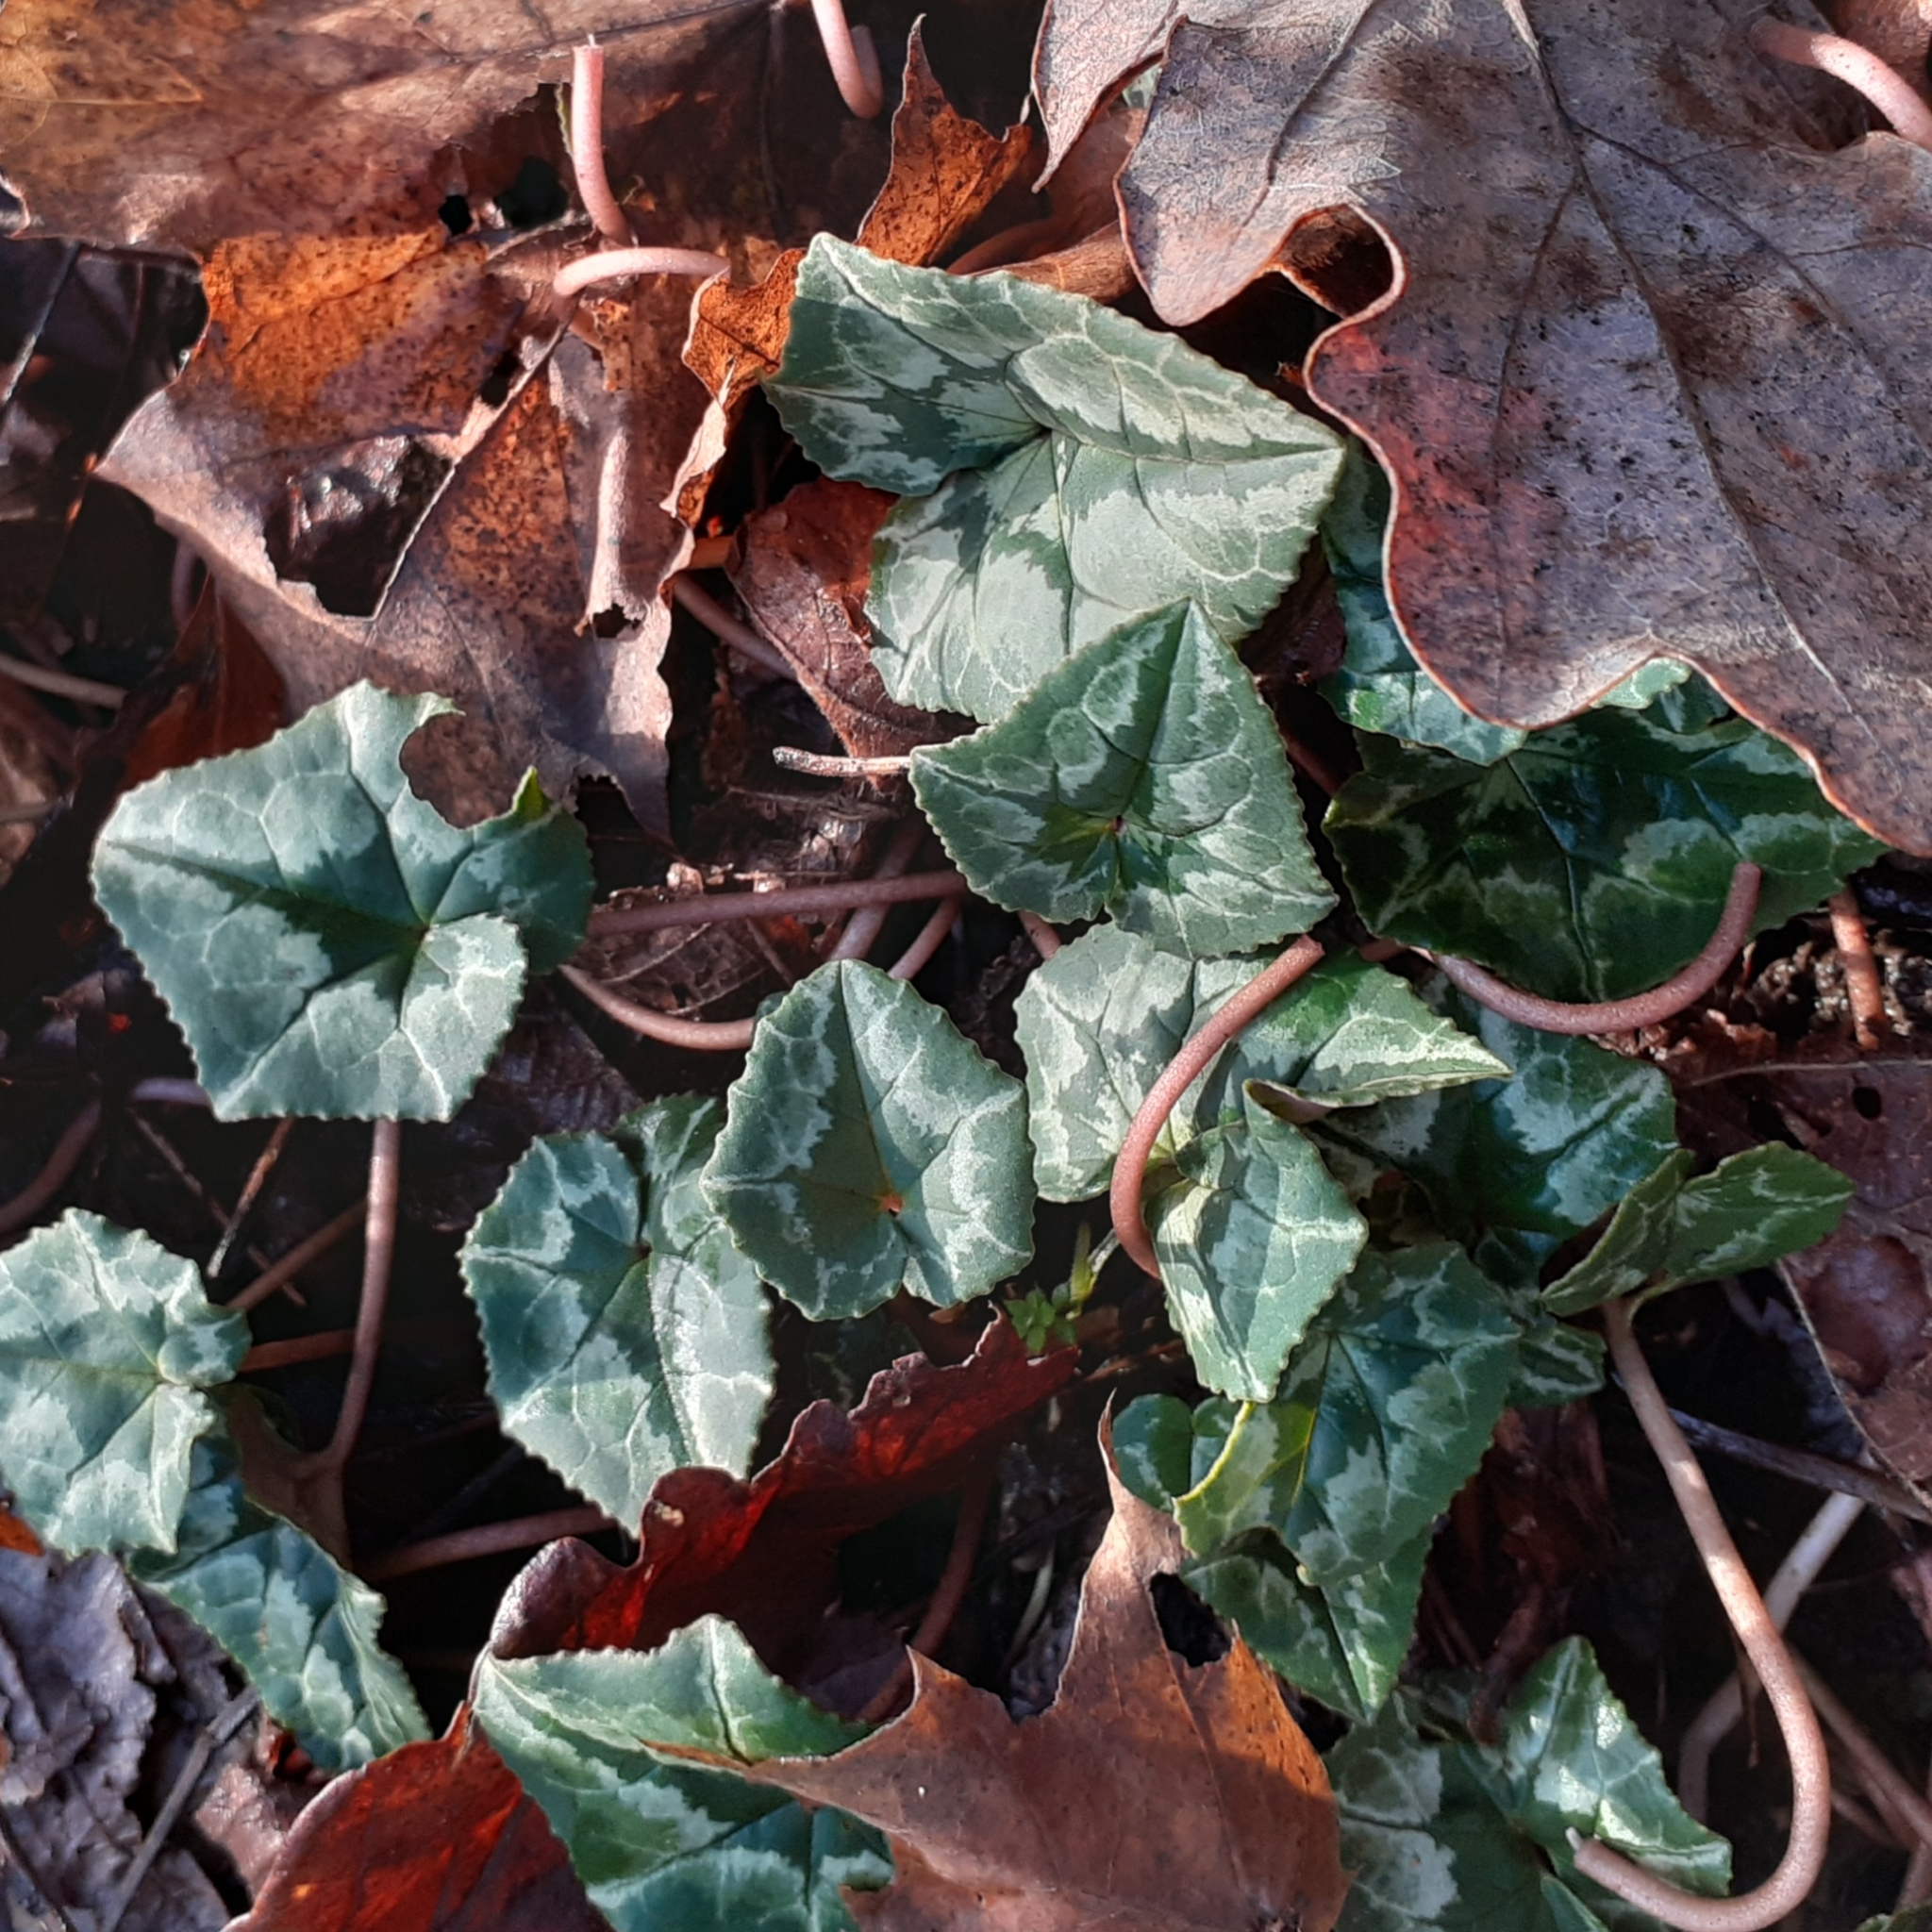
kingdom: Plantae
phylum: Tracheophyta
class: Magnoliopsida
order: Ericales
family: Primulaceae
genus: Cyclamen
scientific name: Cyclamen hederifolium
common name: Sowbread
